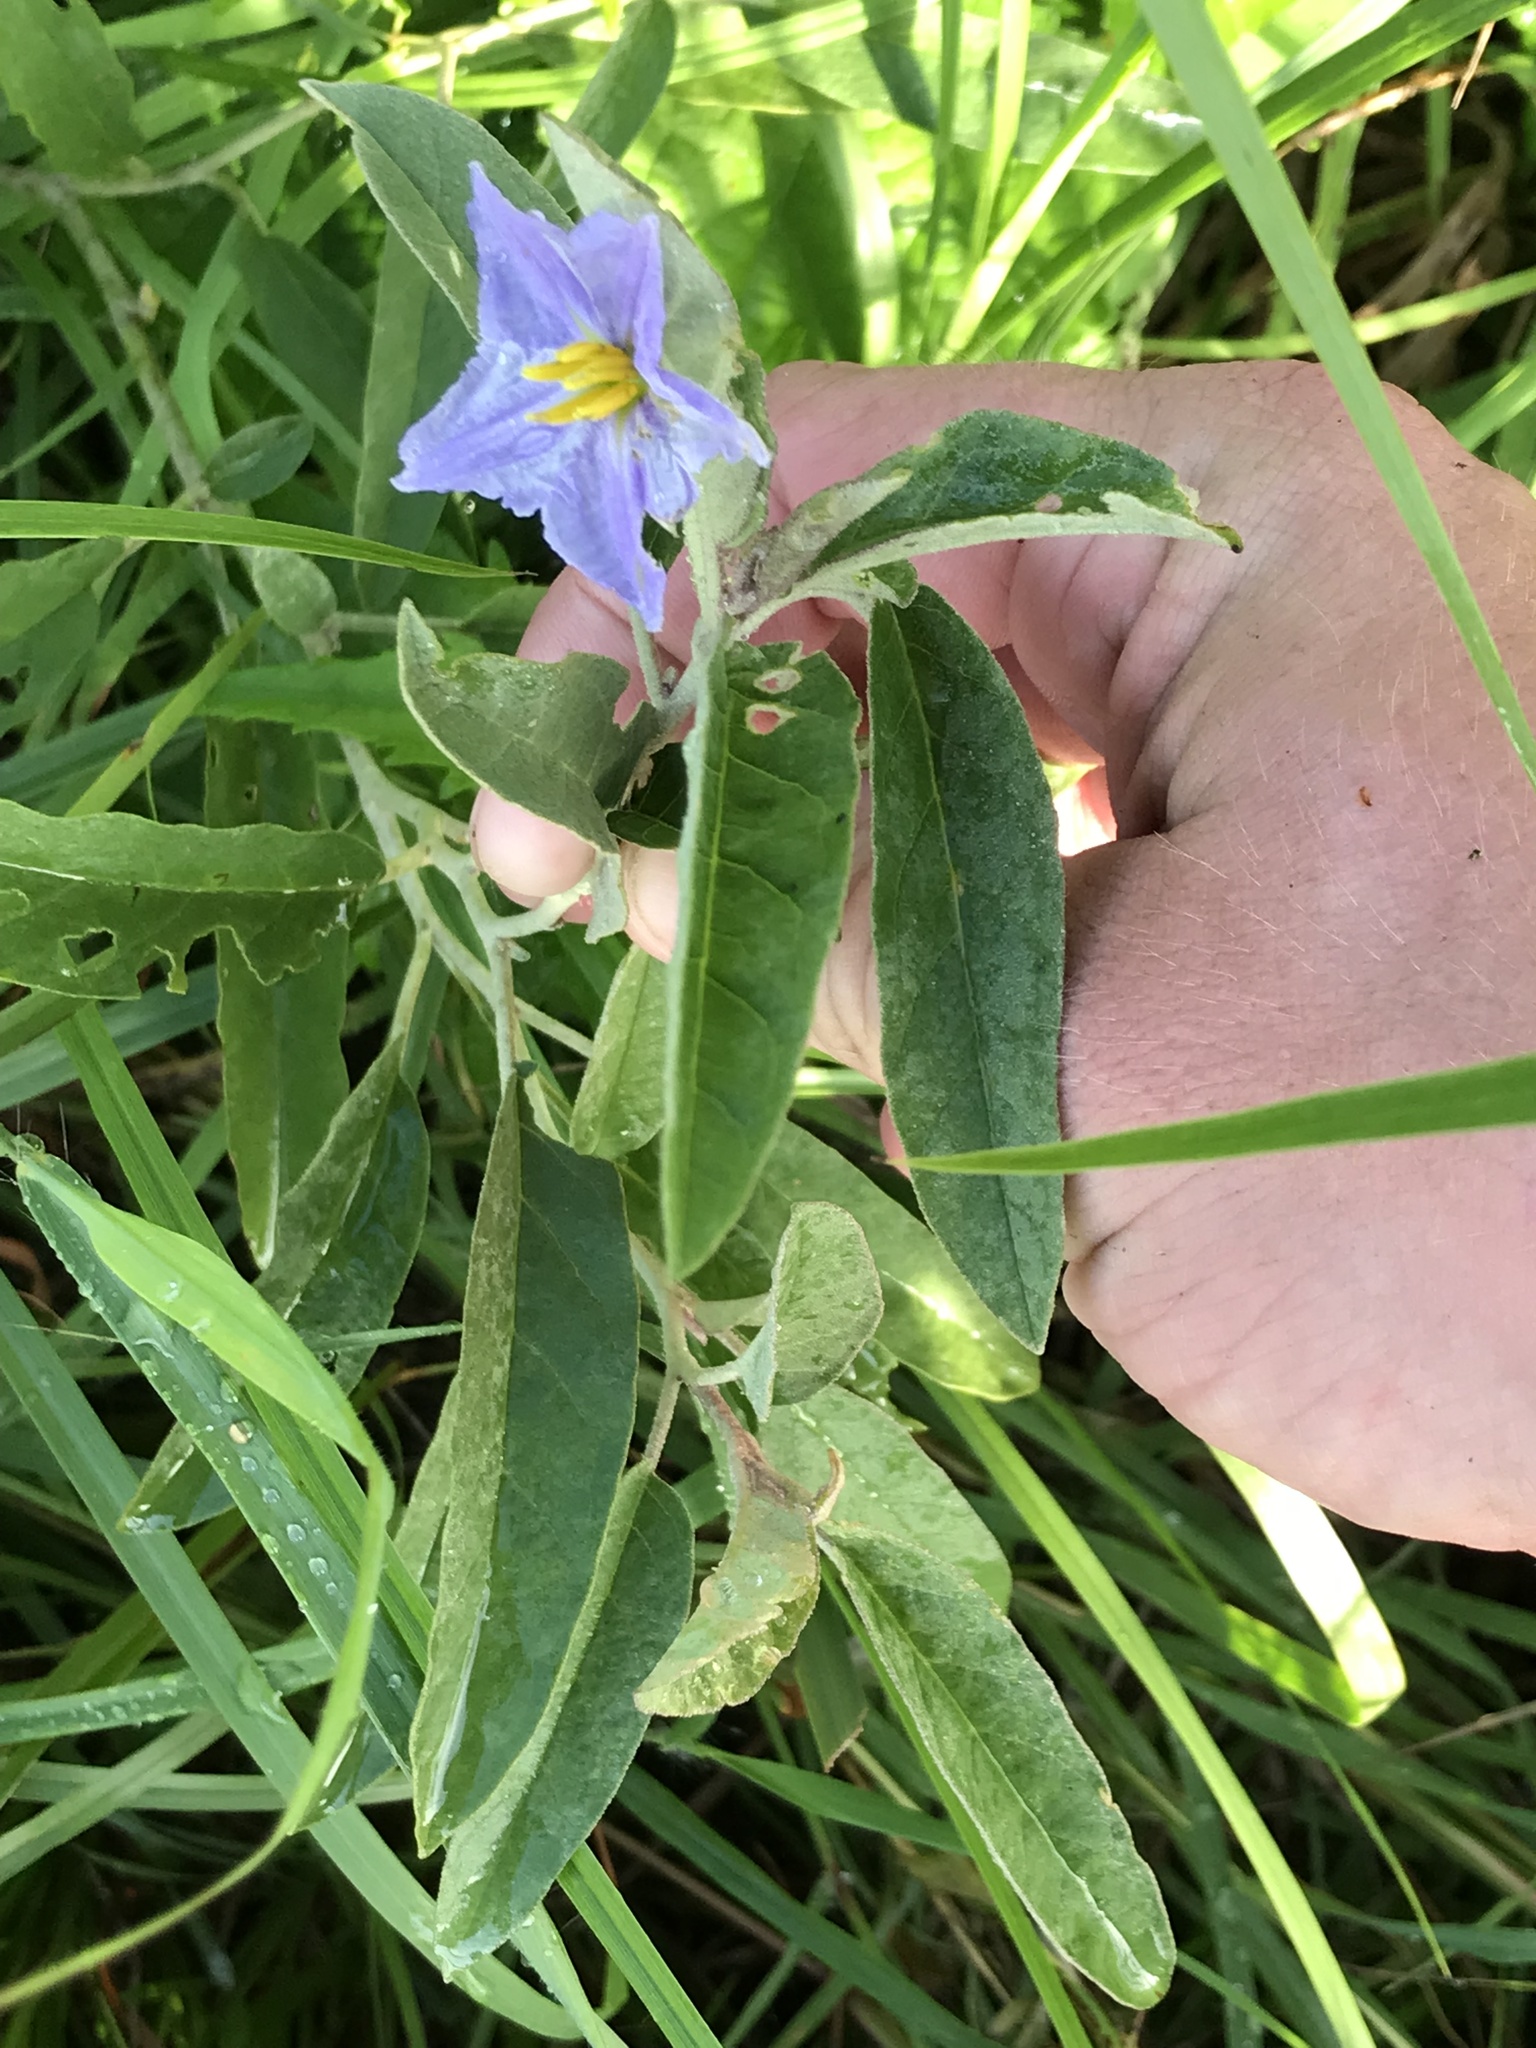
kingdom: Plantae
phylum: Tracheophyta
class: Magnoliopsida
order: Solanales
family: Solanaceae
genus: Solanum
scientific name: Solanum elaeagnifolium
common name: Silverleaf nightshade
